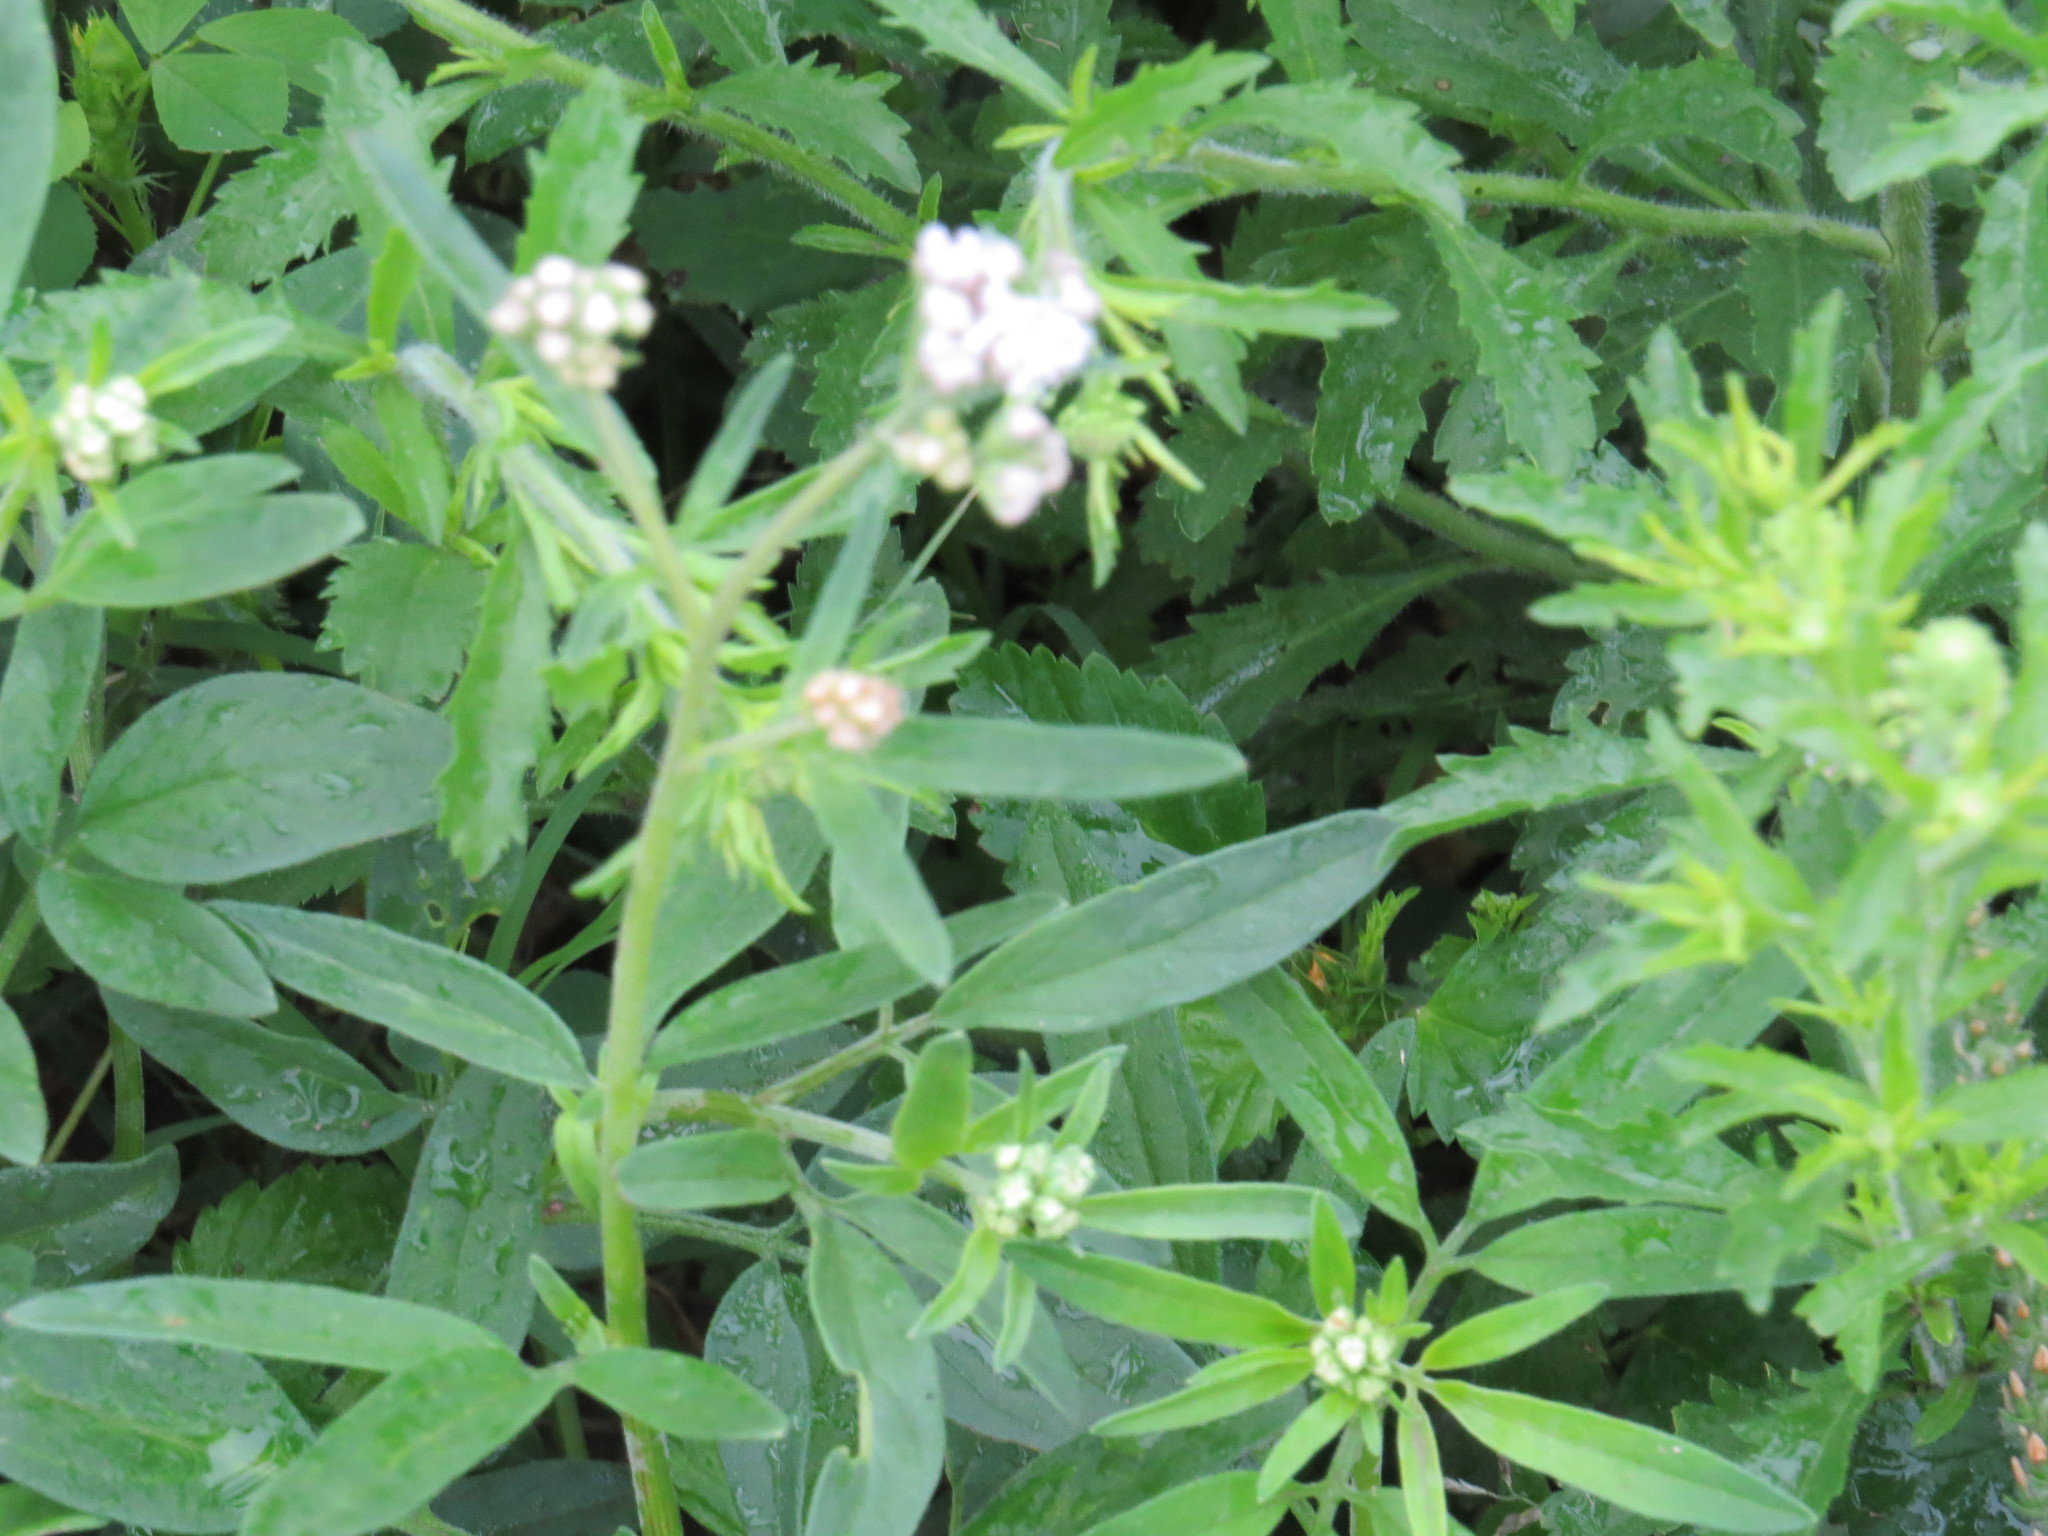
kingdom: Plantae
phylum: Tracheophyta
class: Magnoliopsida
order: Asterales
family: Asteraceae
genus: Florestina
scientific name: Florestina tripteris
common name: Sticky florestina
